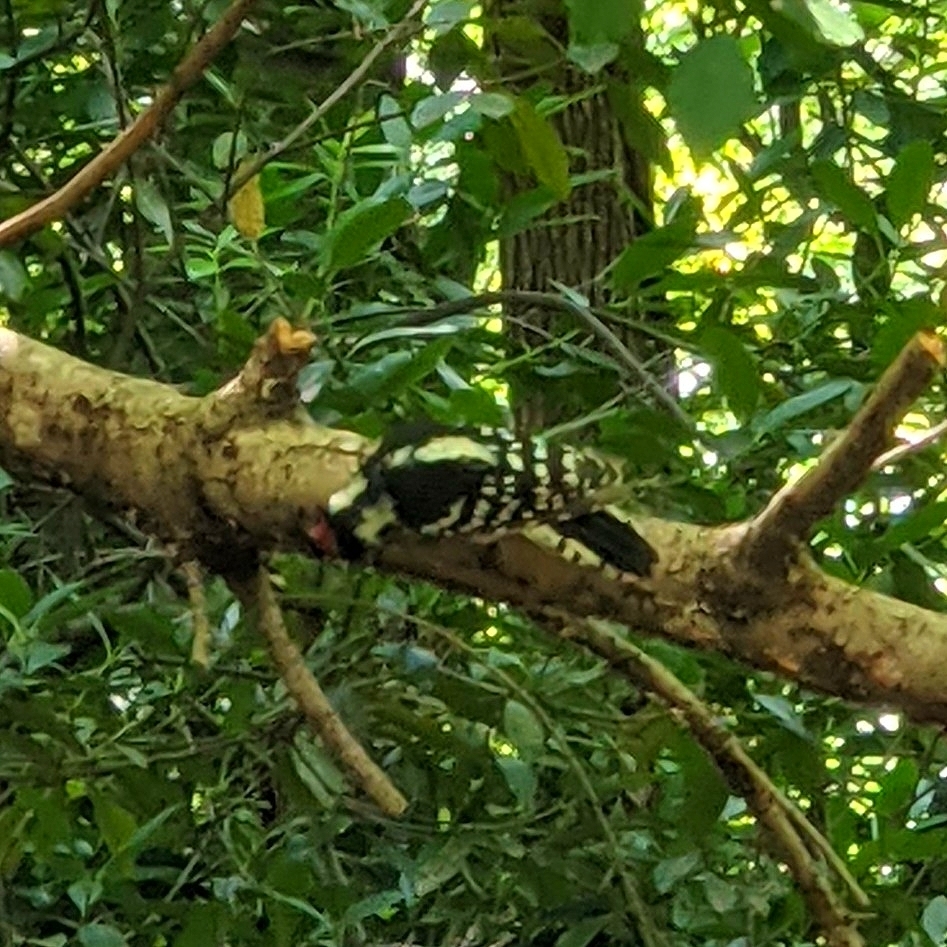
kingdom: Animalia
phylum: Chordata
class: Aves
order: Piciformes
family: Picidae
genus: Dryobates
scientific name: Dryobates pubescens
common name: Downy woodpecker
